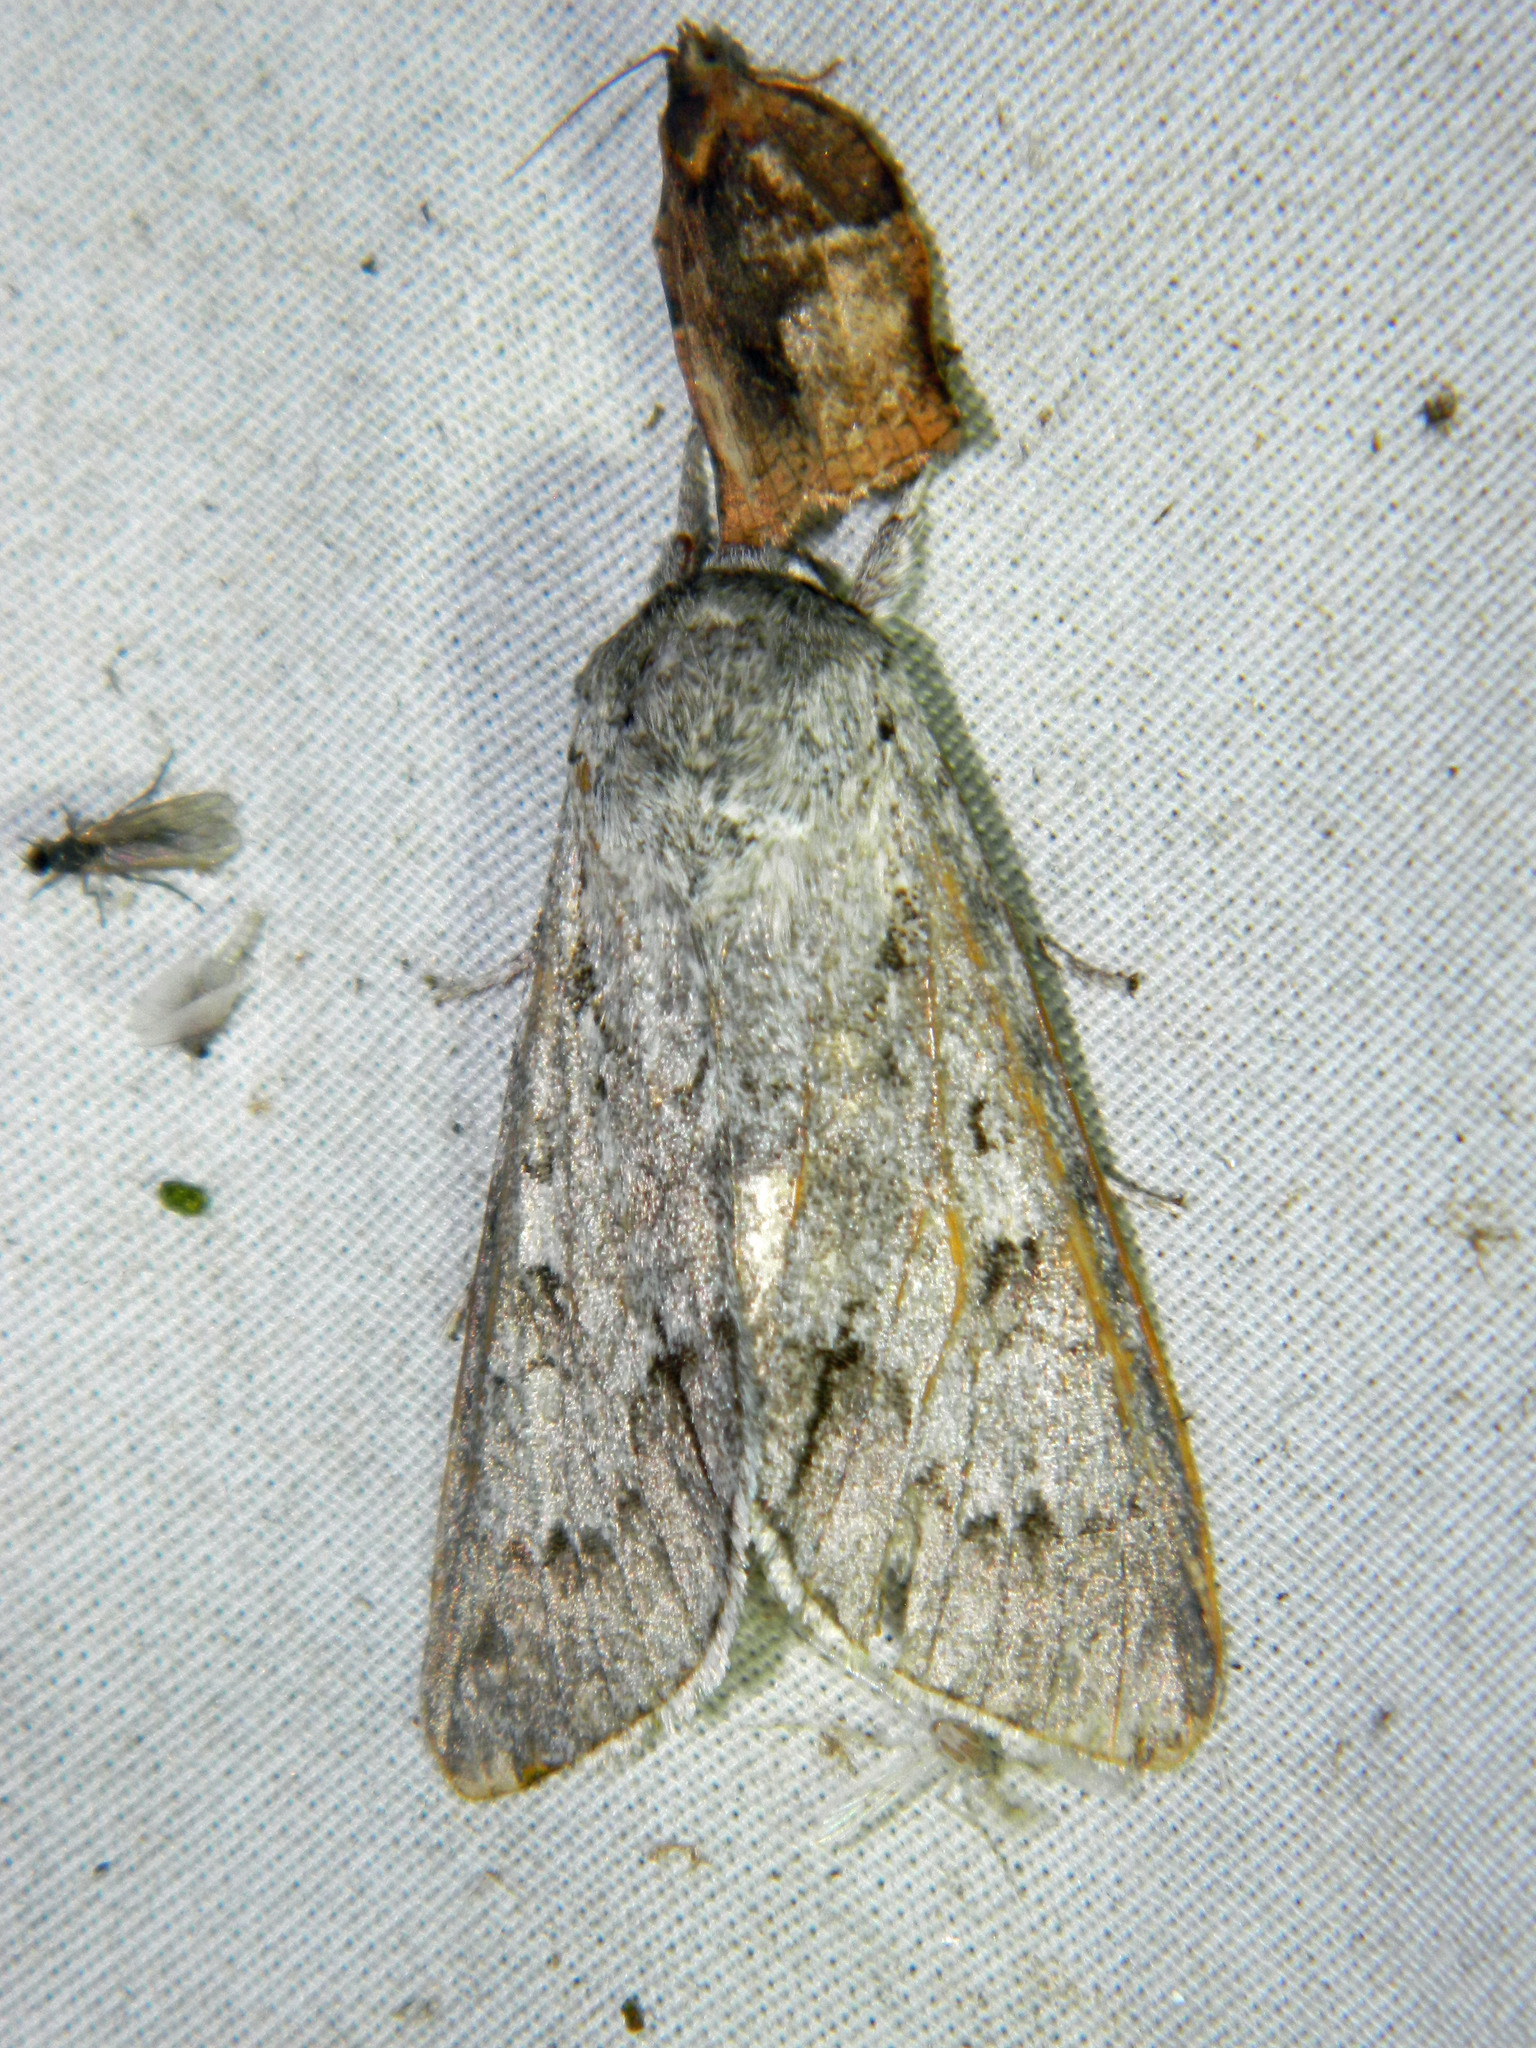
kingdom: Animalia
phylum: Arthropoda
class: Insecta
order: Lepidoptera
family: Noctuidae
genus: Acronicta
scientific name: Acronicta insita
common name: Large gray dagger
